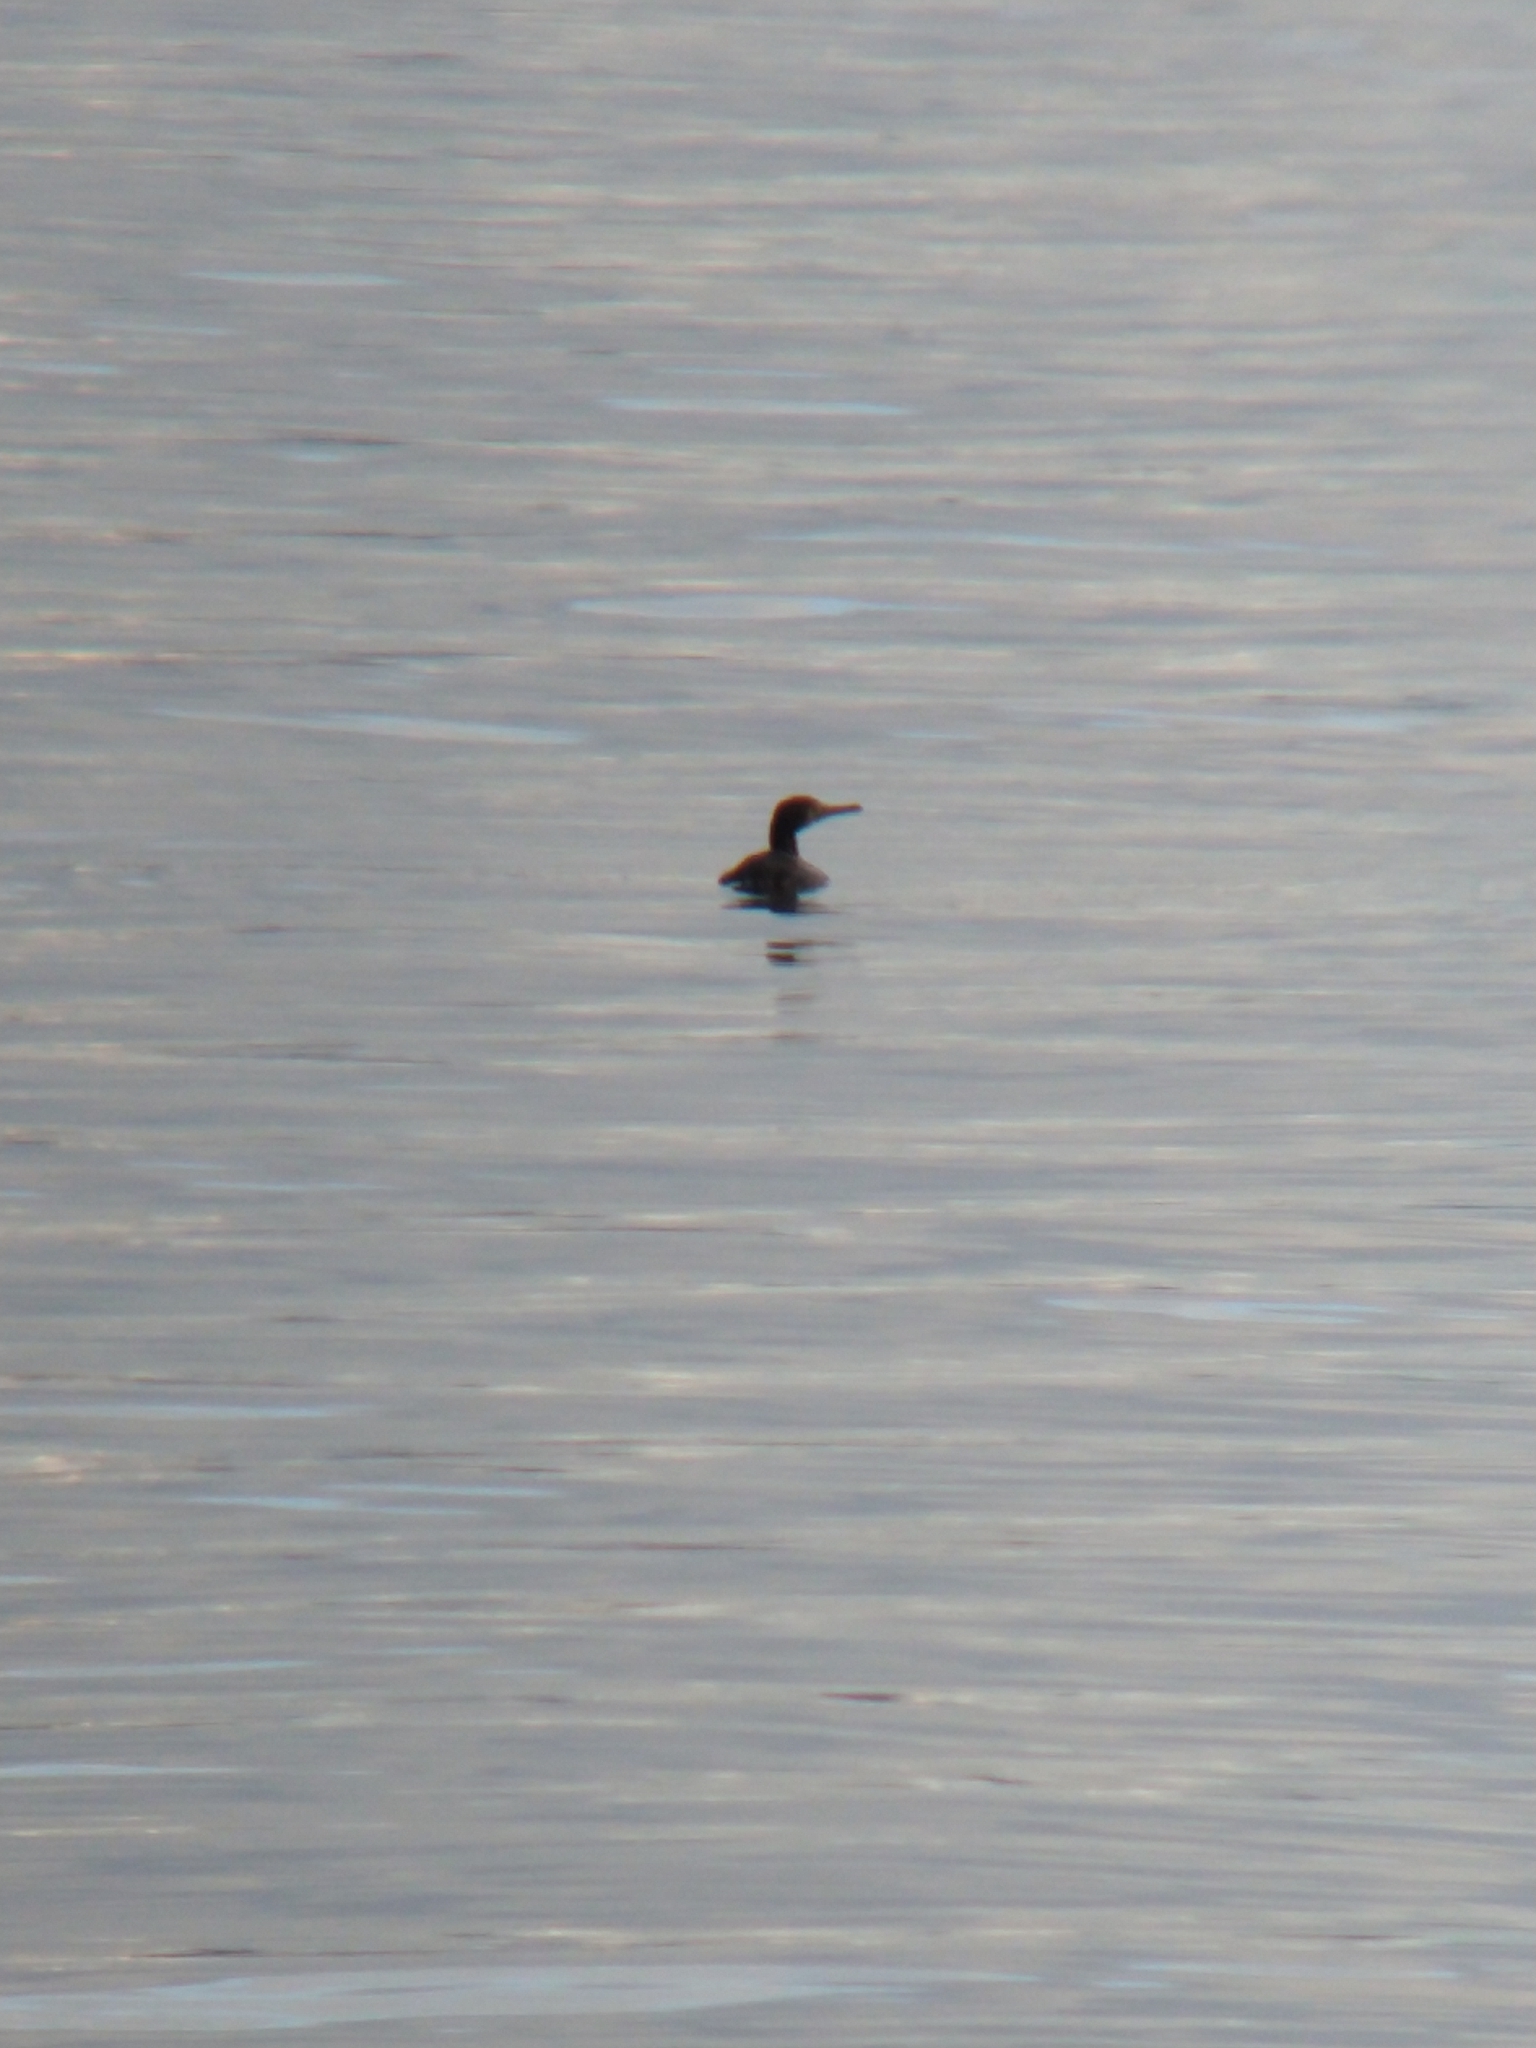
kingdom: Animalia
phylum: Chordata
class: Aves
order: Suliformes
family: Phalacrocoracidae
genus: Leucocarbo
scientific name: Leucocarbo atriceps
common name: Imperial shag
